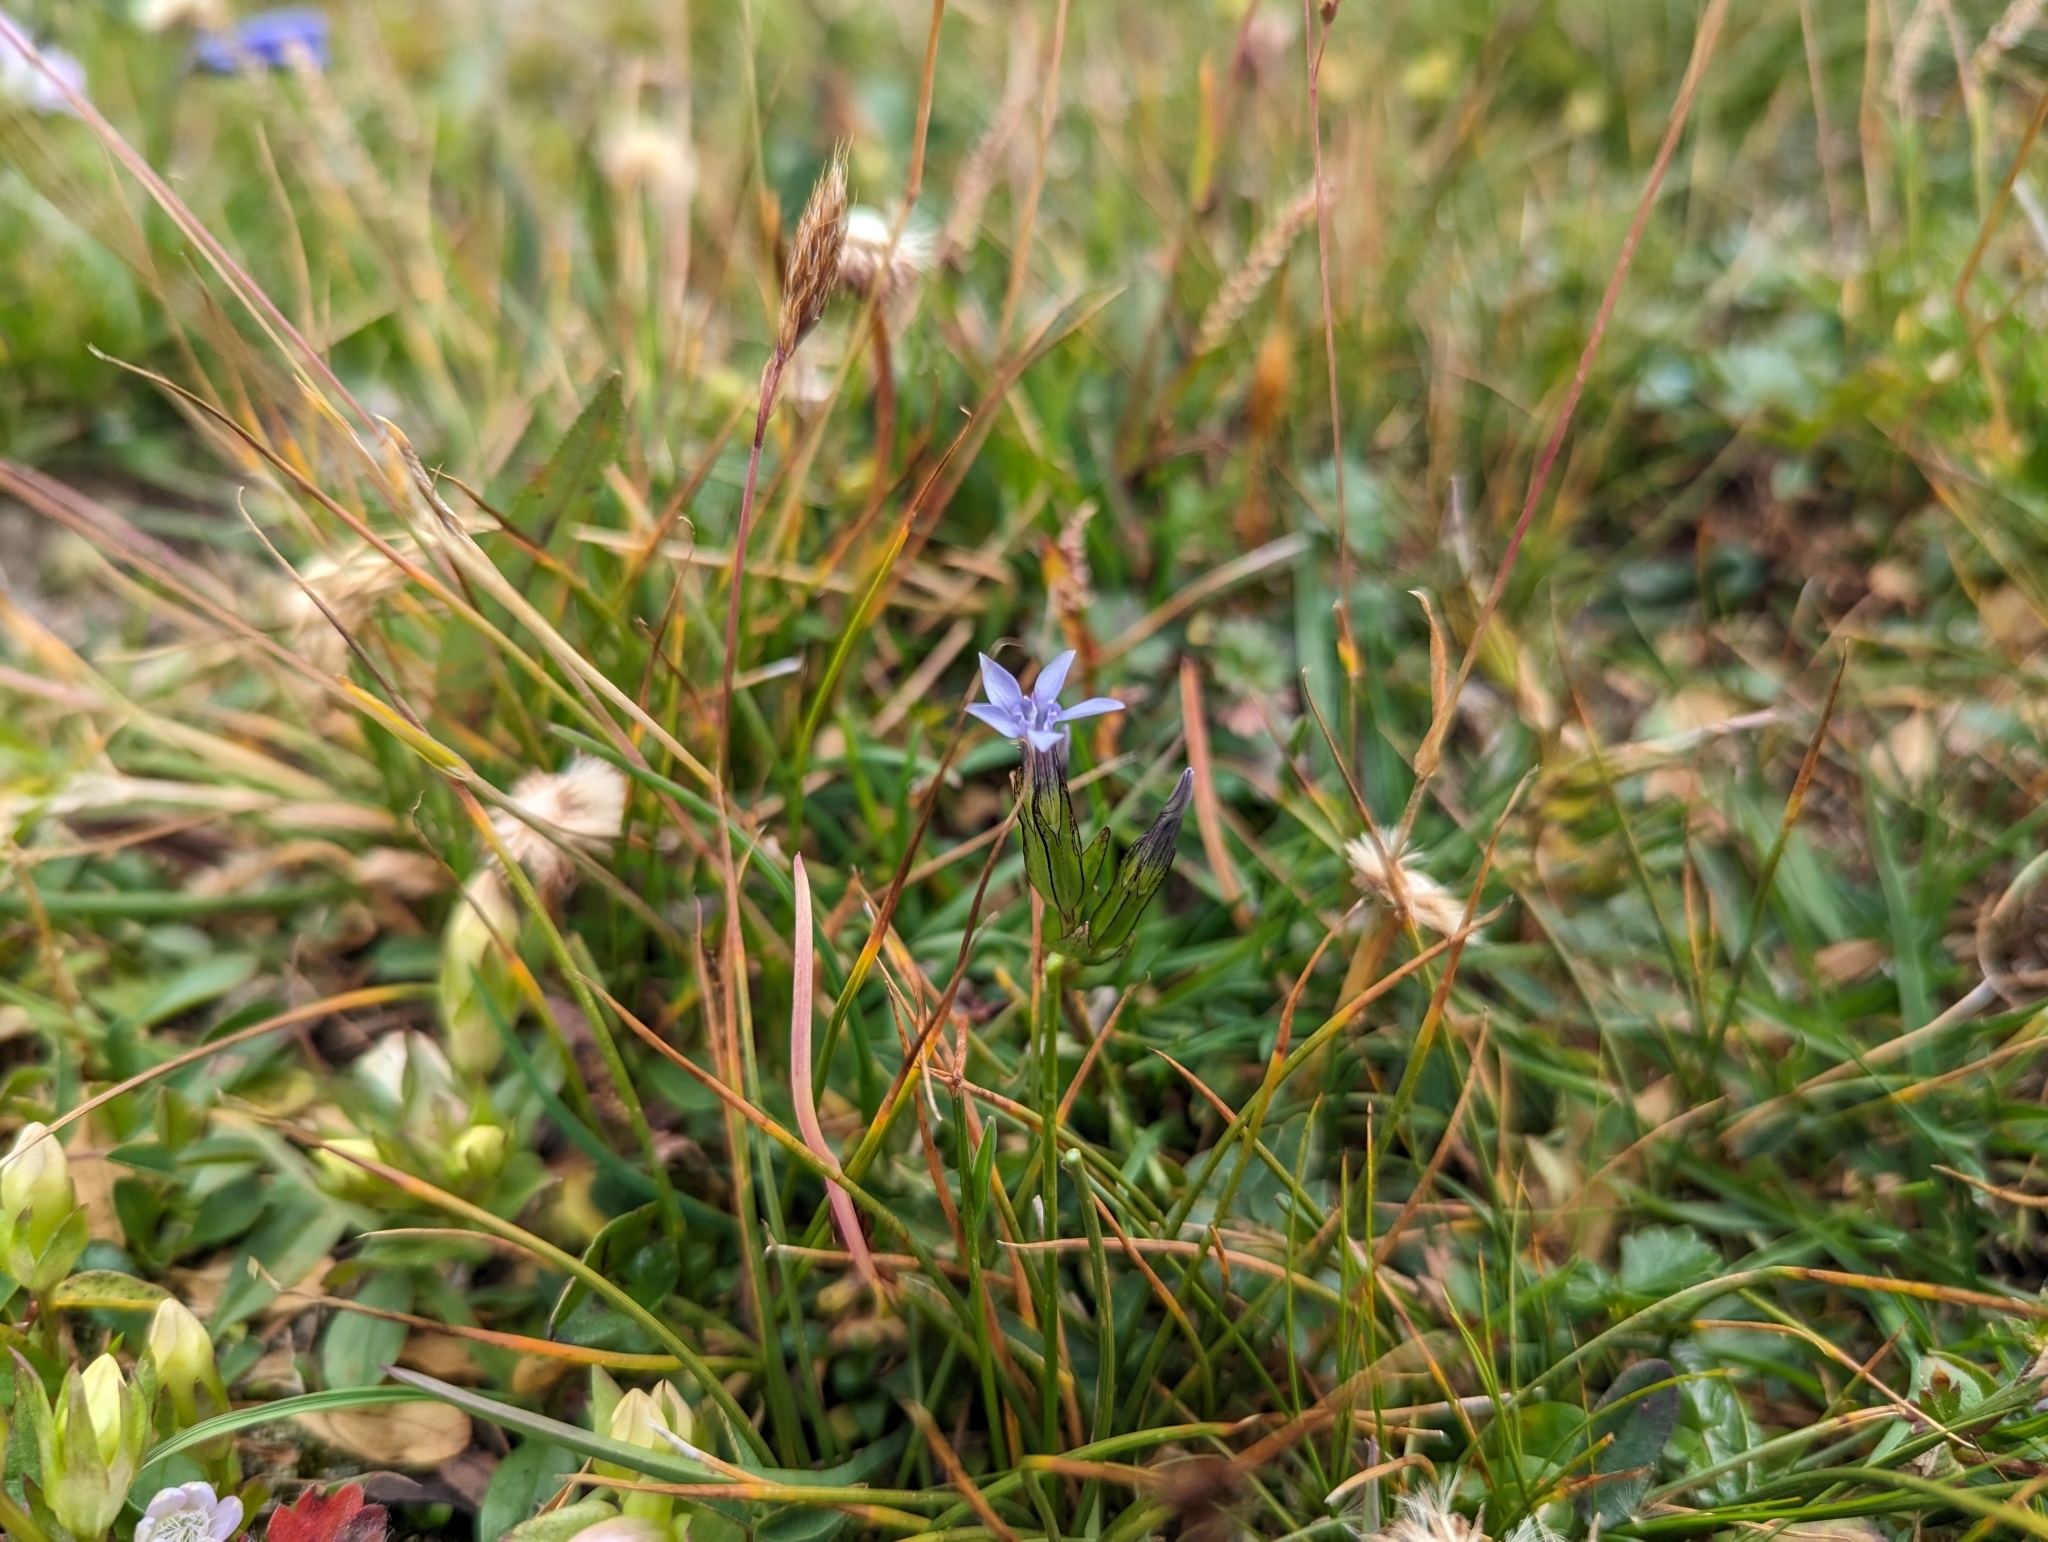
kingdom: Plantae
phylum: Tracheophyta
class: Magnoliopsida
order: Gentianales
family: Gentianaceae
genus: Gentiana
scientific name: Gentiana nivalis
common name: Alpine gentian
